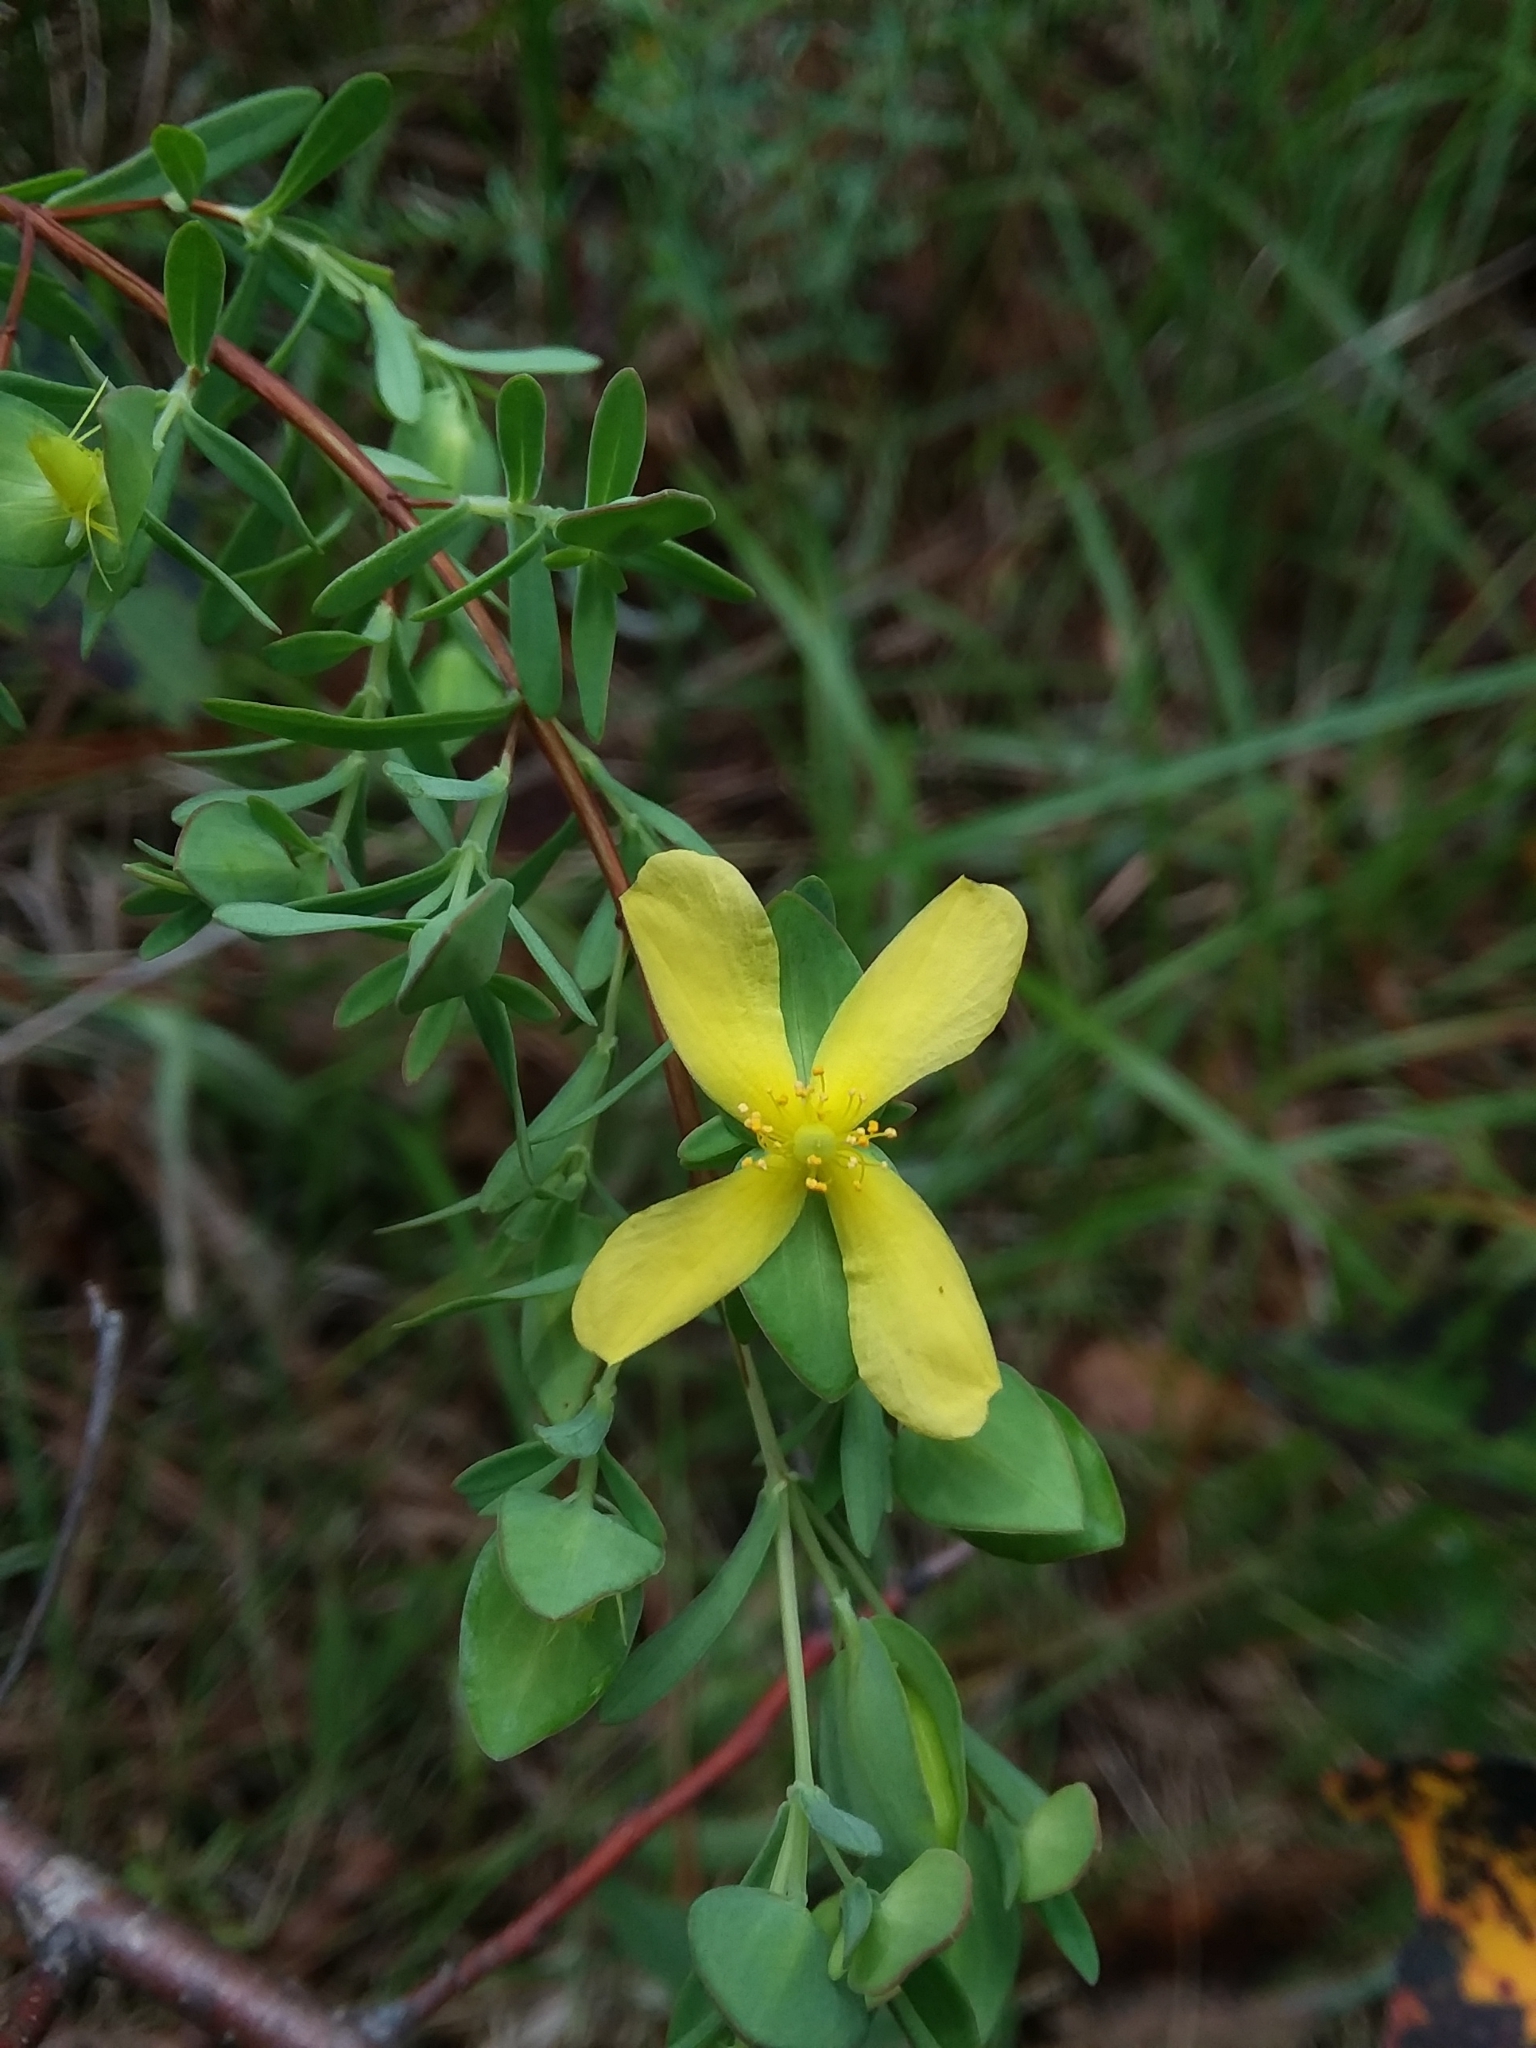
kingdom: Plantae
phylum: Tracheophyta
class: Magnoliopsida
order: Malpighiales
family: Hypericaceae
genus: Hypericum
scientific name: Hypericum hypericoides
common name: St. andrew's cross
